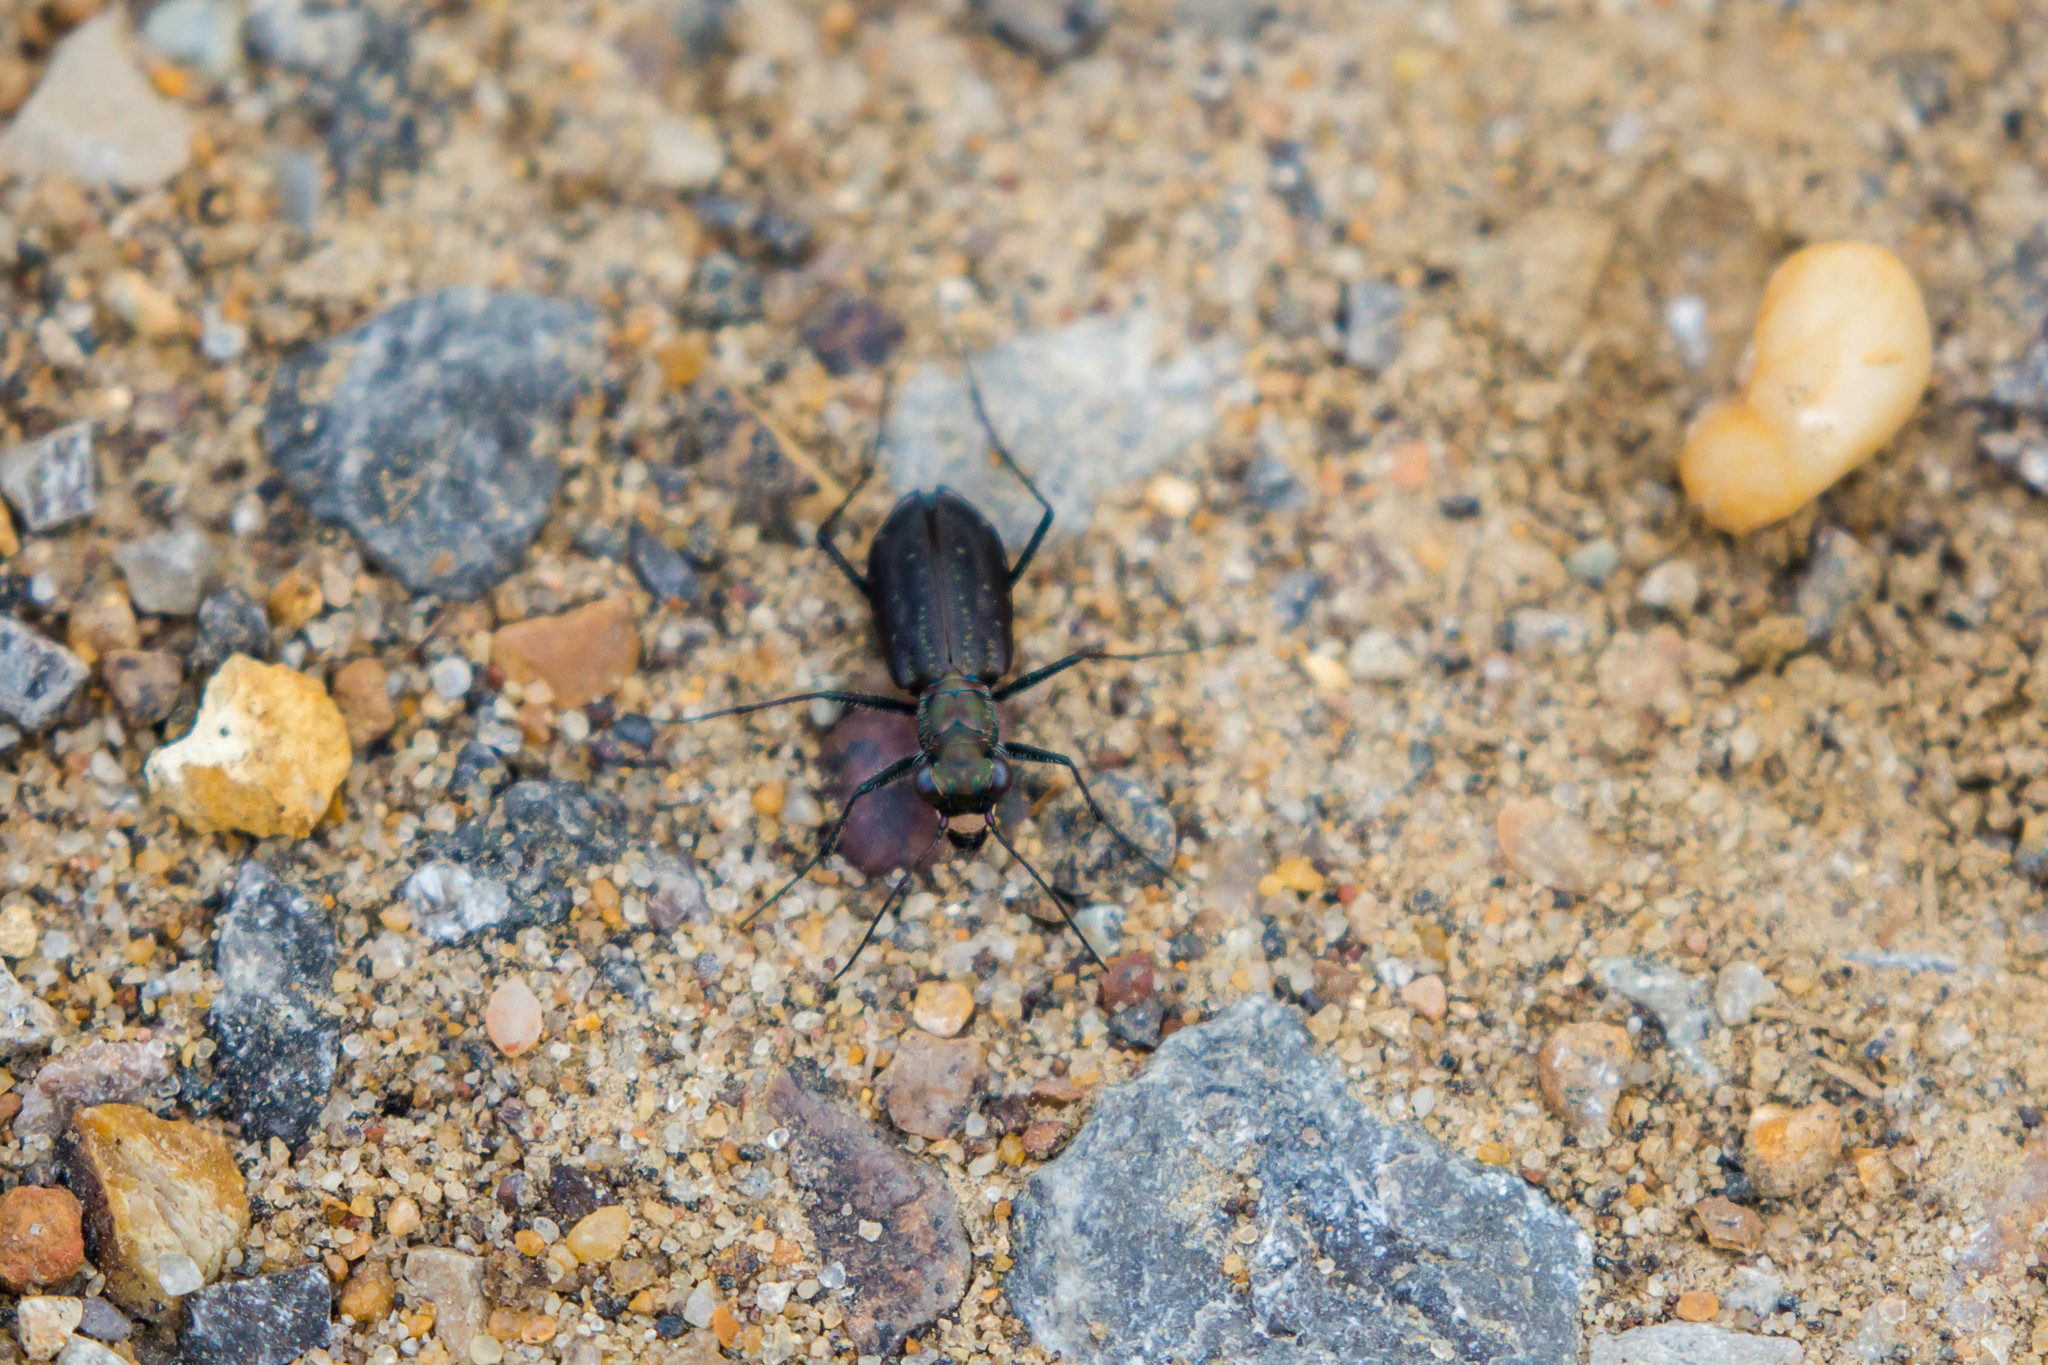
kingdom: Animalia
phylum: Arthropoda
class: Insecta
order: Coleoptera
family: Carabidae
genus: Cicindela
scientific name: Cicindela punctulata
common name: Punctured tiger beetle
